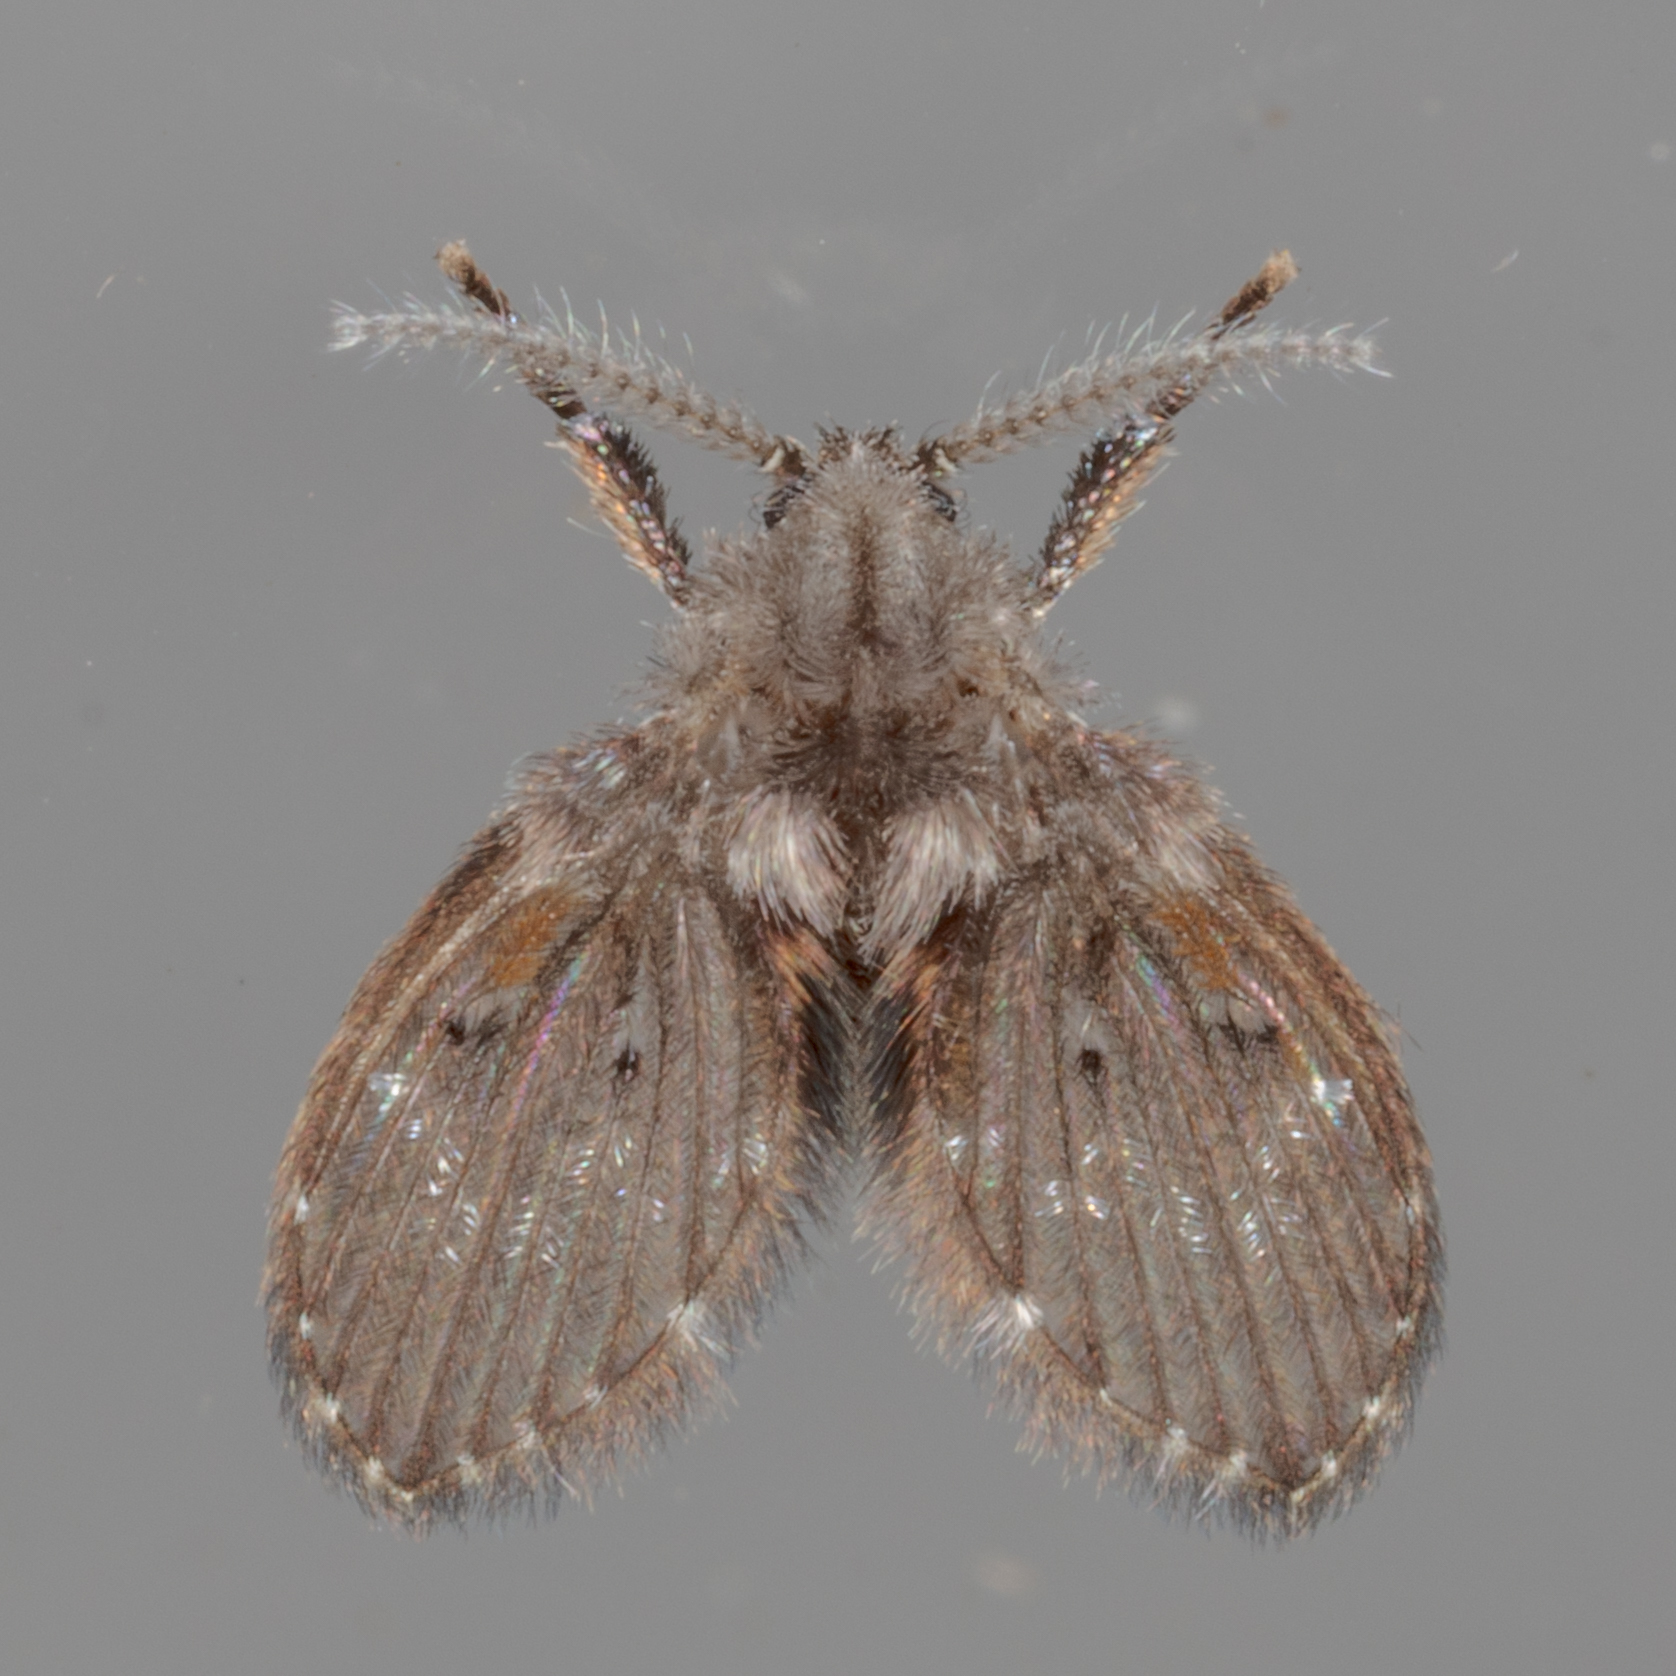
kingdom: Animalia
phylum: Arthropoda
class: Insecta
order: Diptera
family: Psychodidae
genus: Clogmia
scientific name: Clogmia albipunctatus
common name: White-spotted moth fly
